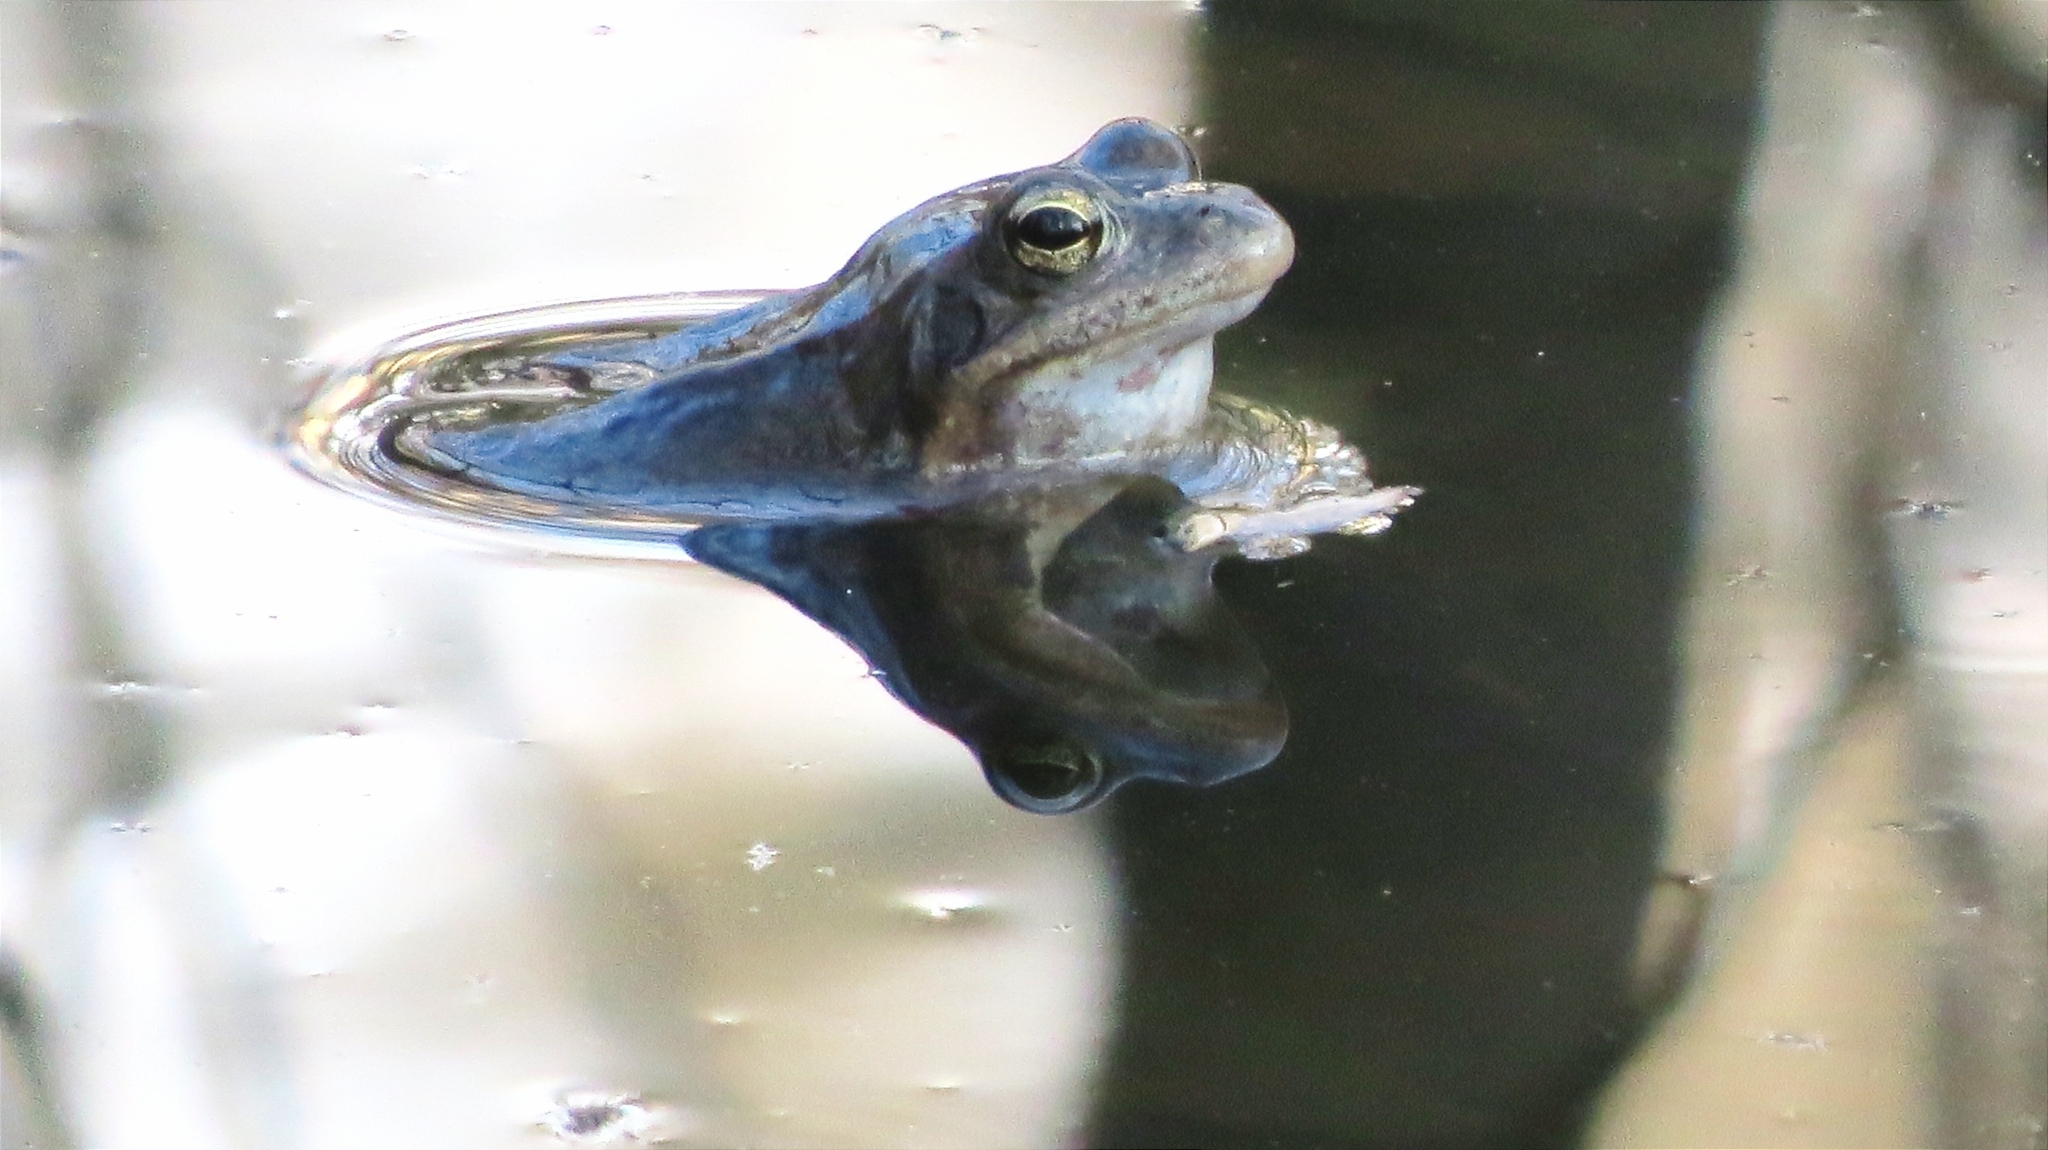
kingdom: Animalia
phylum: Chordata
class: Amphibia
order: Anura
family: Ranidae
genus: Rana
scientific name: Rana arvalis
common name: Moor frog
